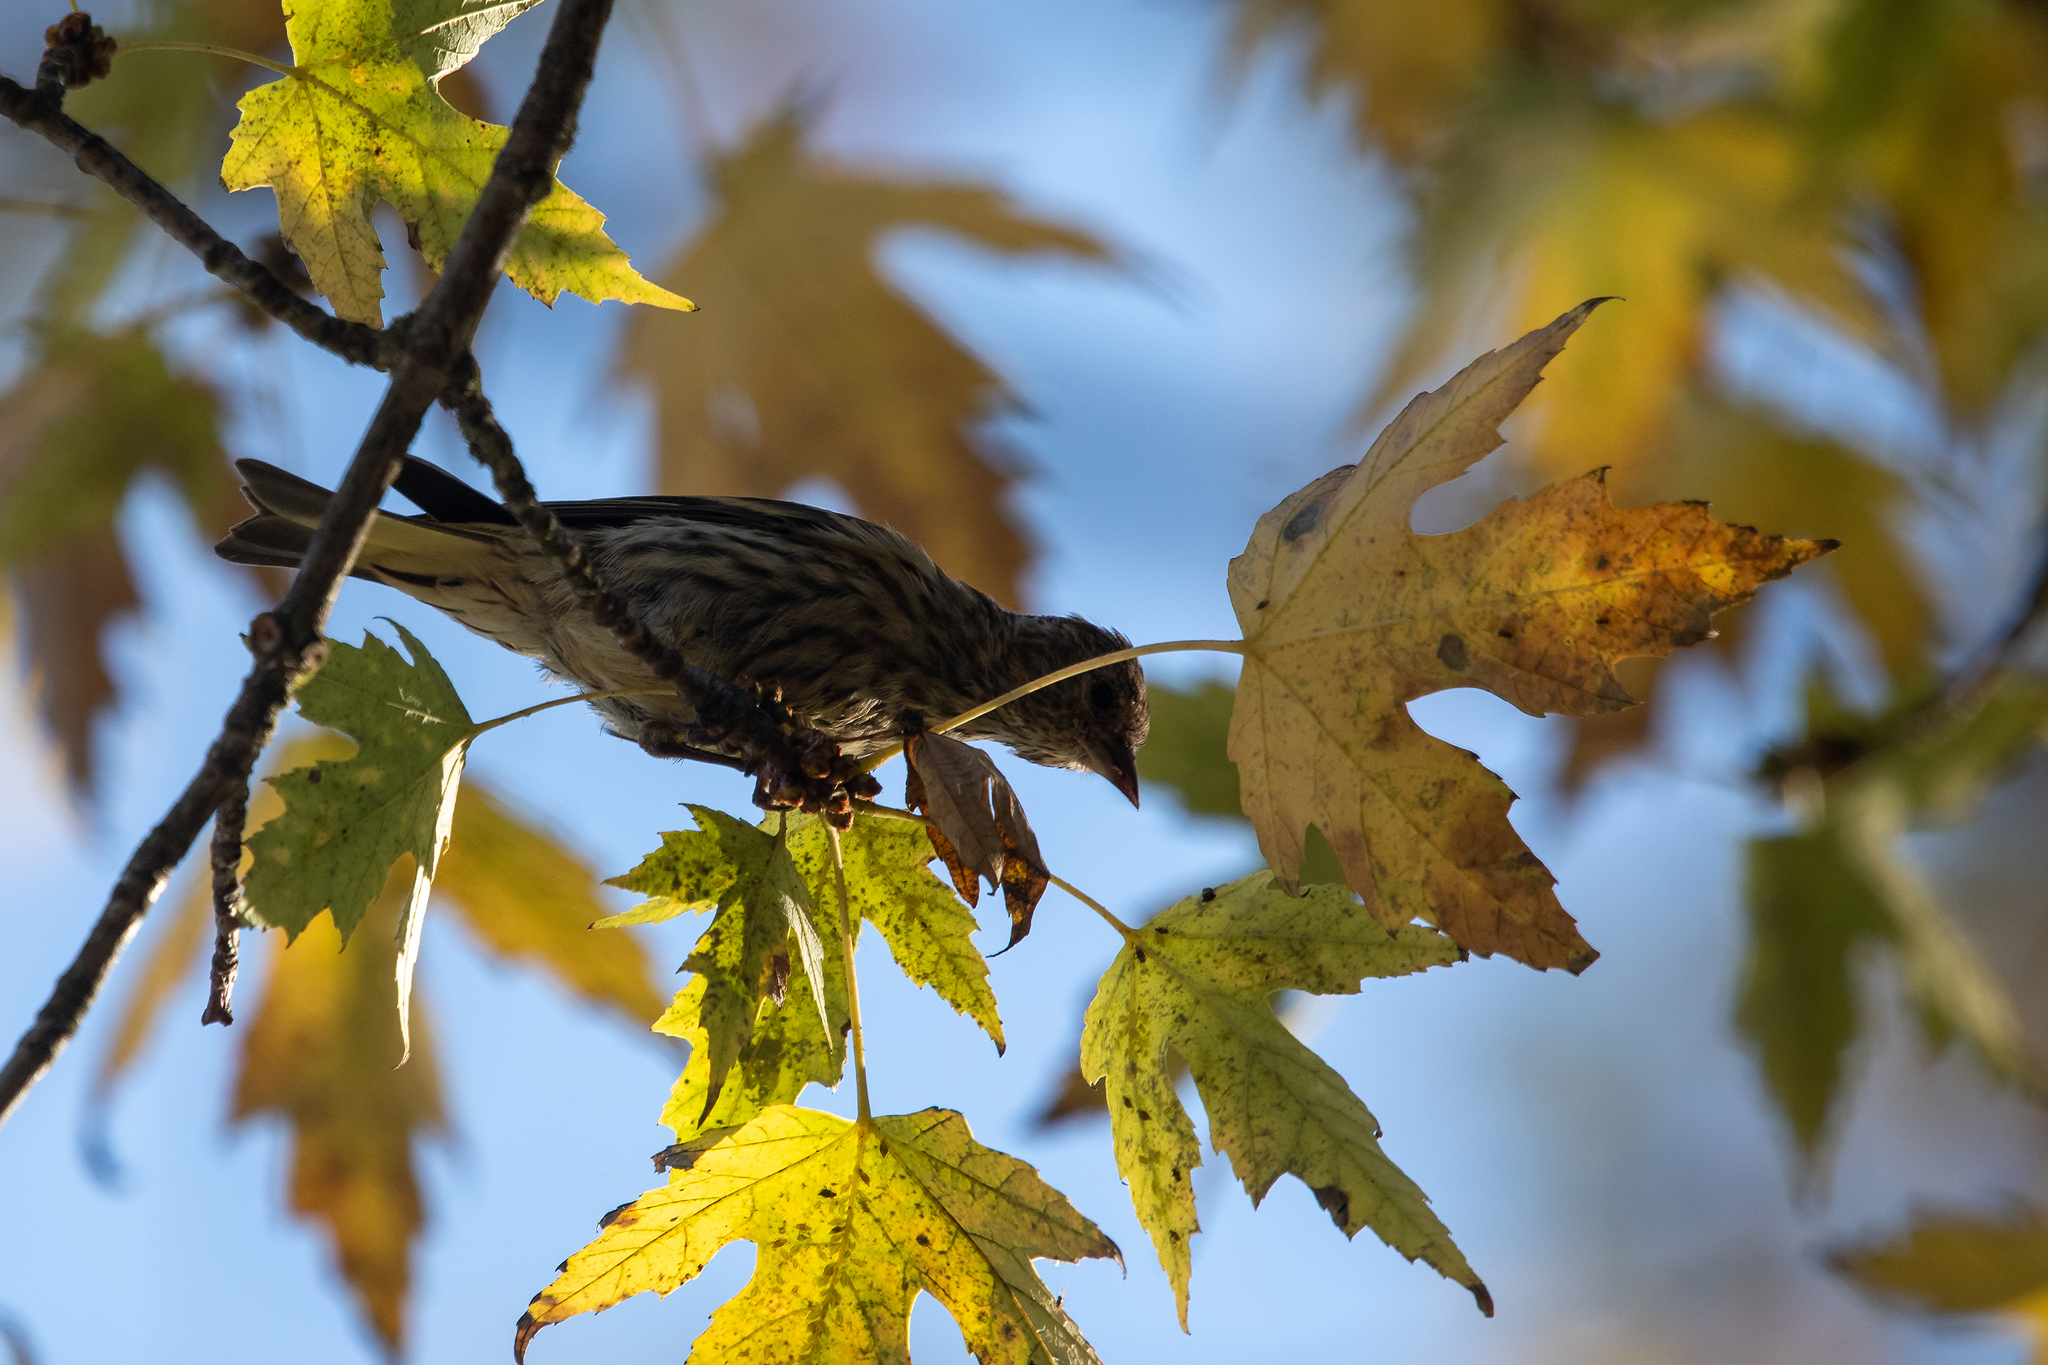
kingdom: Animalia
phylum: Chordata
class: Aves
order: Passeriformes
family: Fringillidae
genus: Spinus
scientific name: Spinus pinus
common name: Pine siskin
